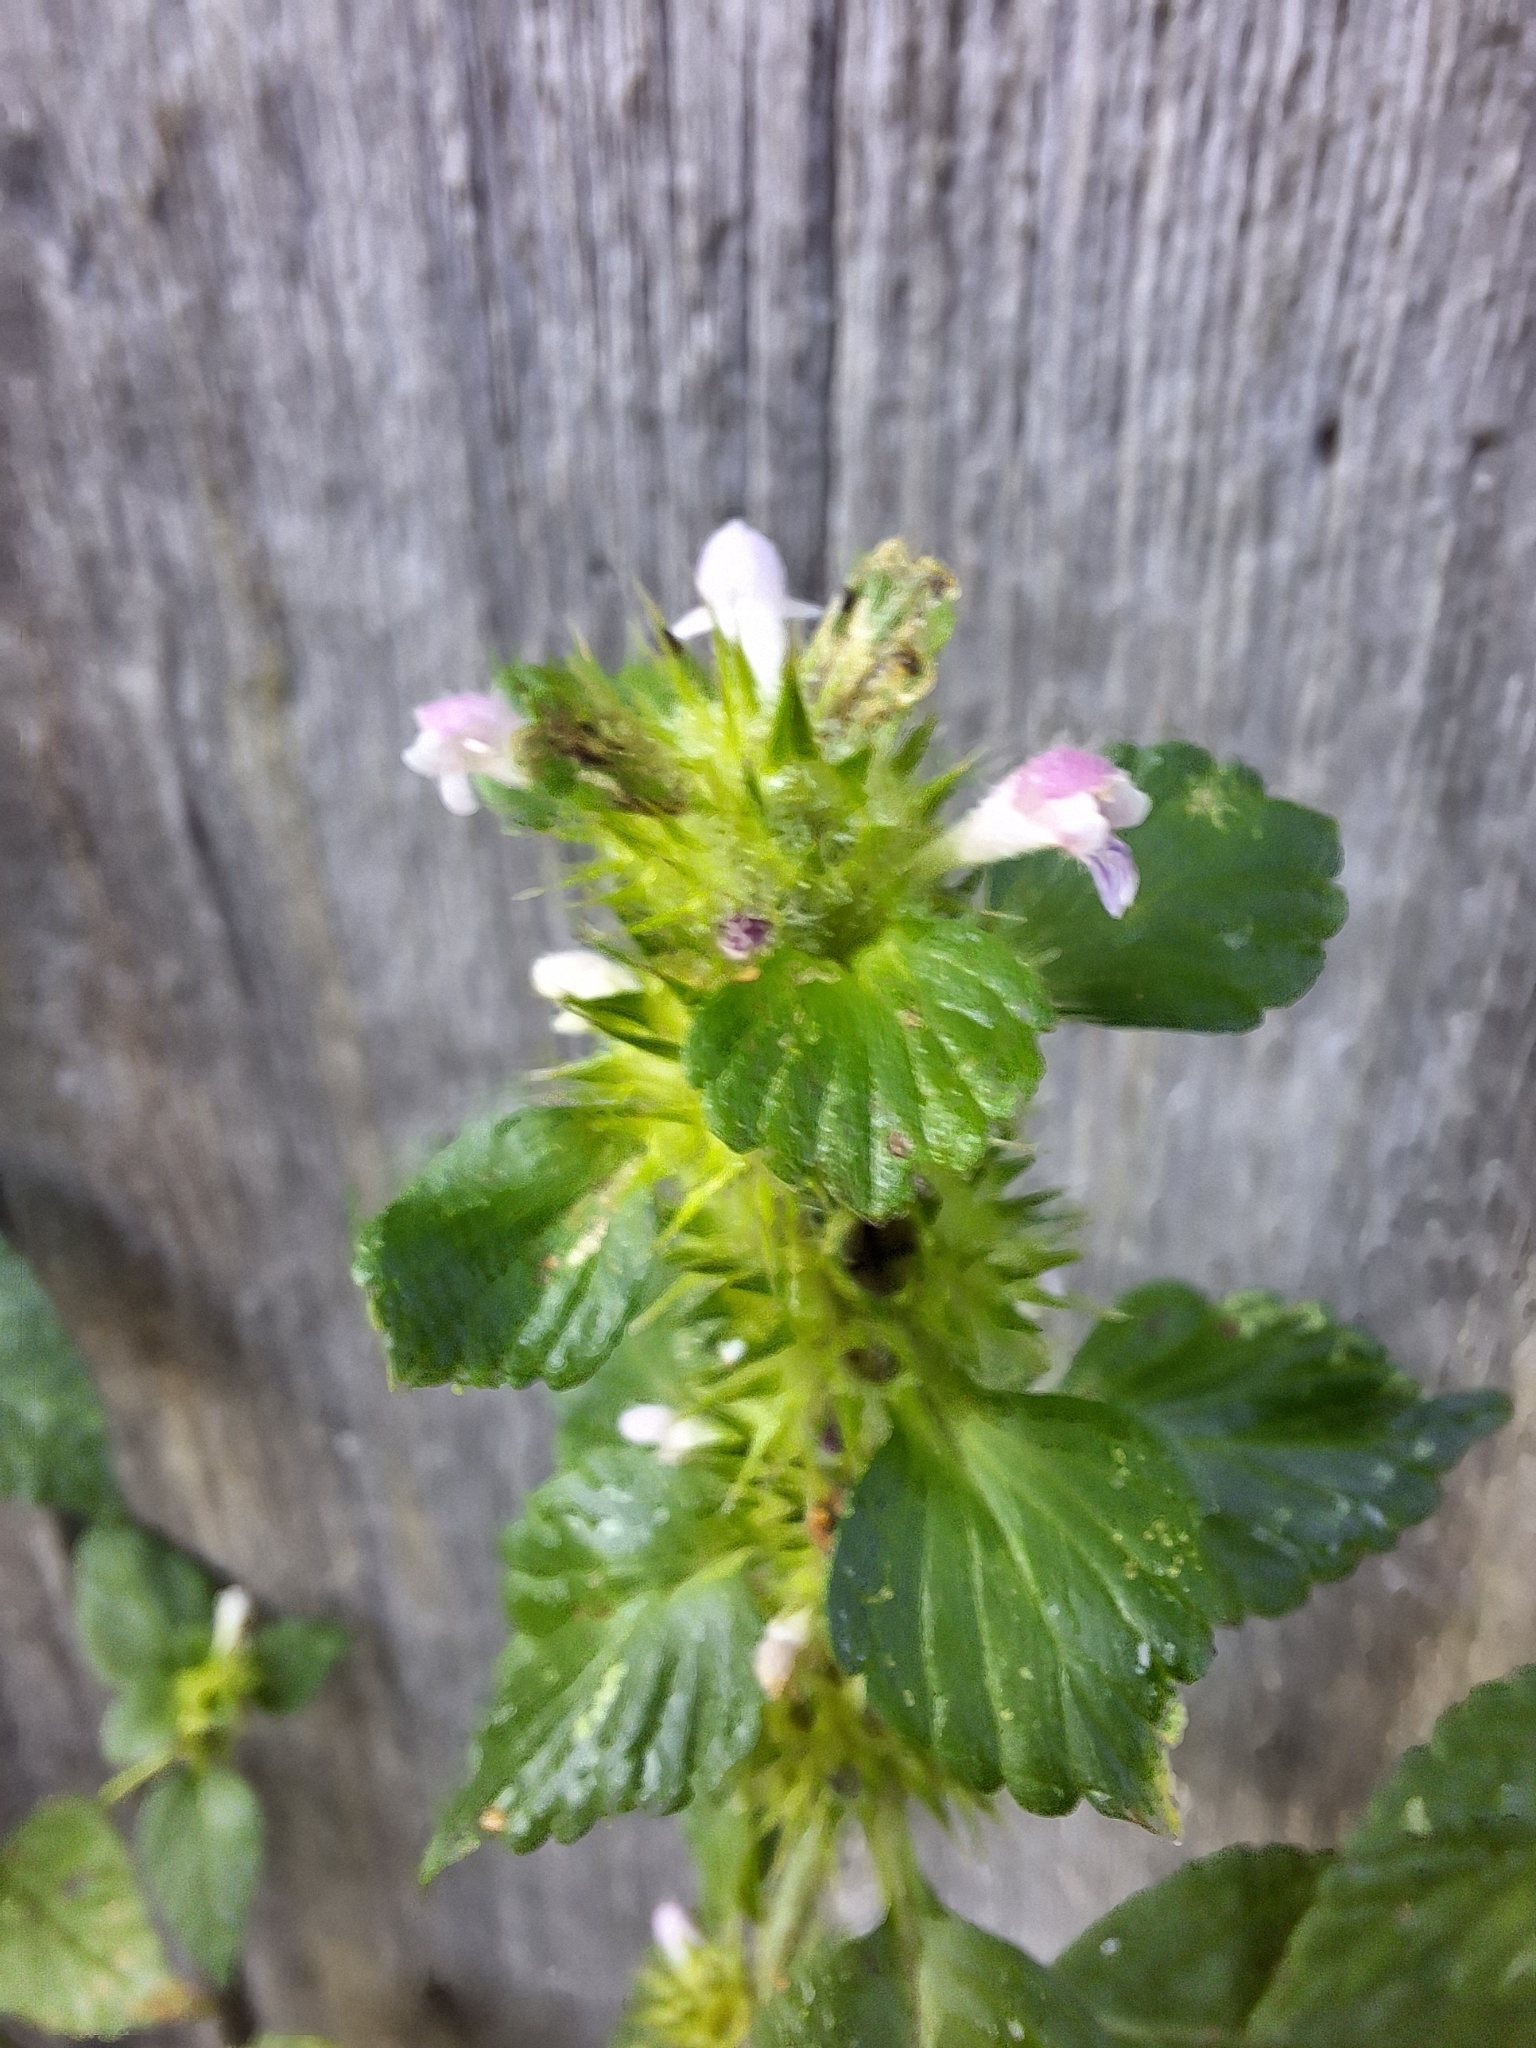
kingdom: Plantae
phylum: Tracheophyta
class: Magnoliopsida
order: Lamiales
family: Lamiaceae
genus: Galeopsis
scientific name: Galeopsis bifida
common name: Bifid hemp-nettle
